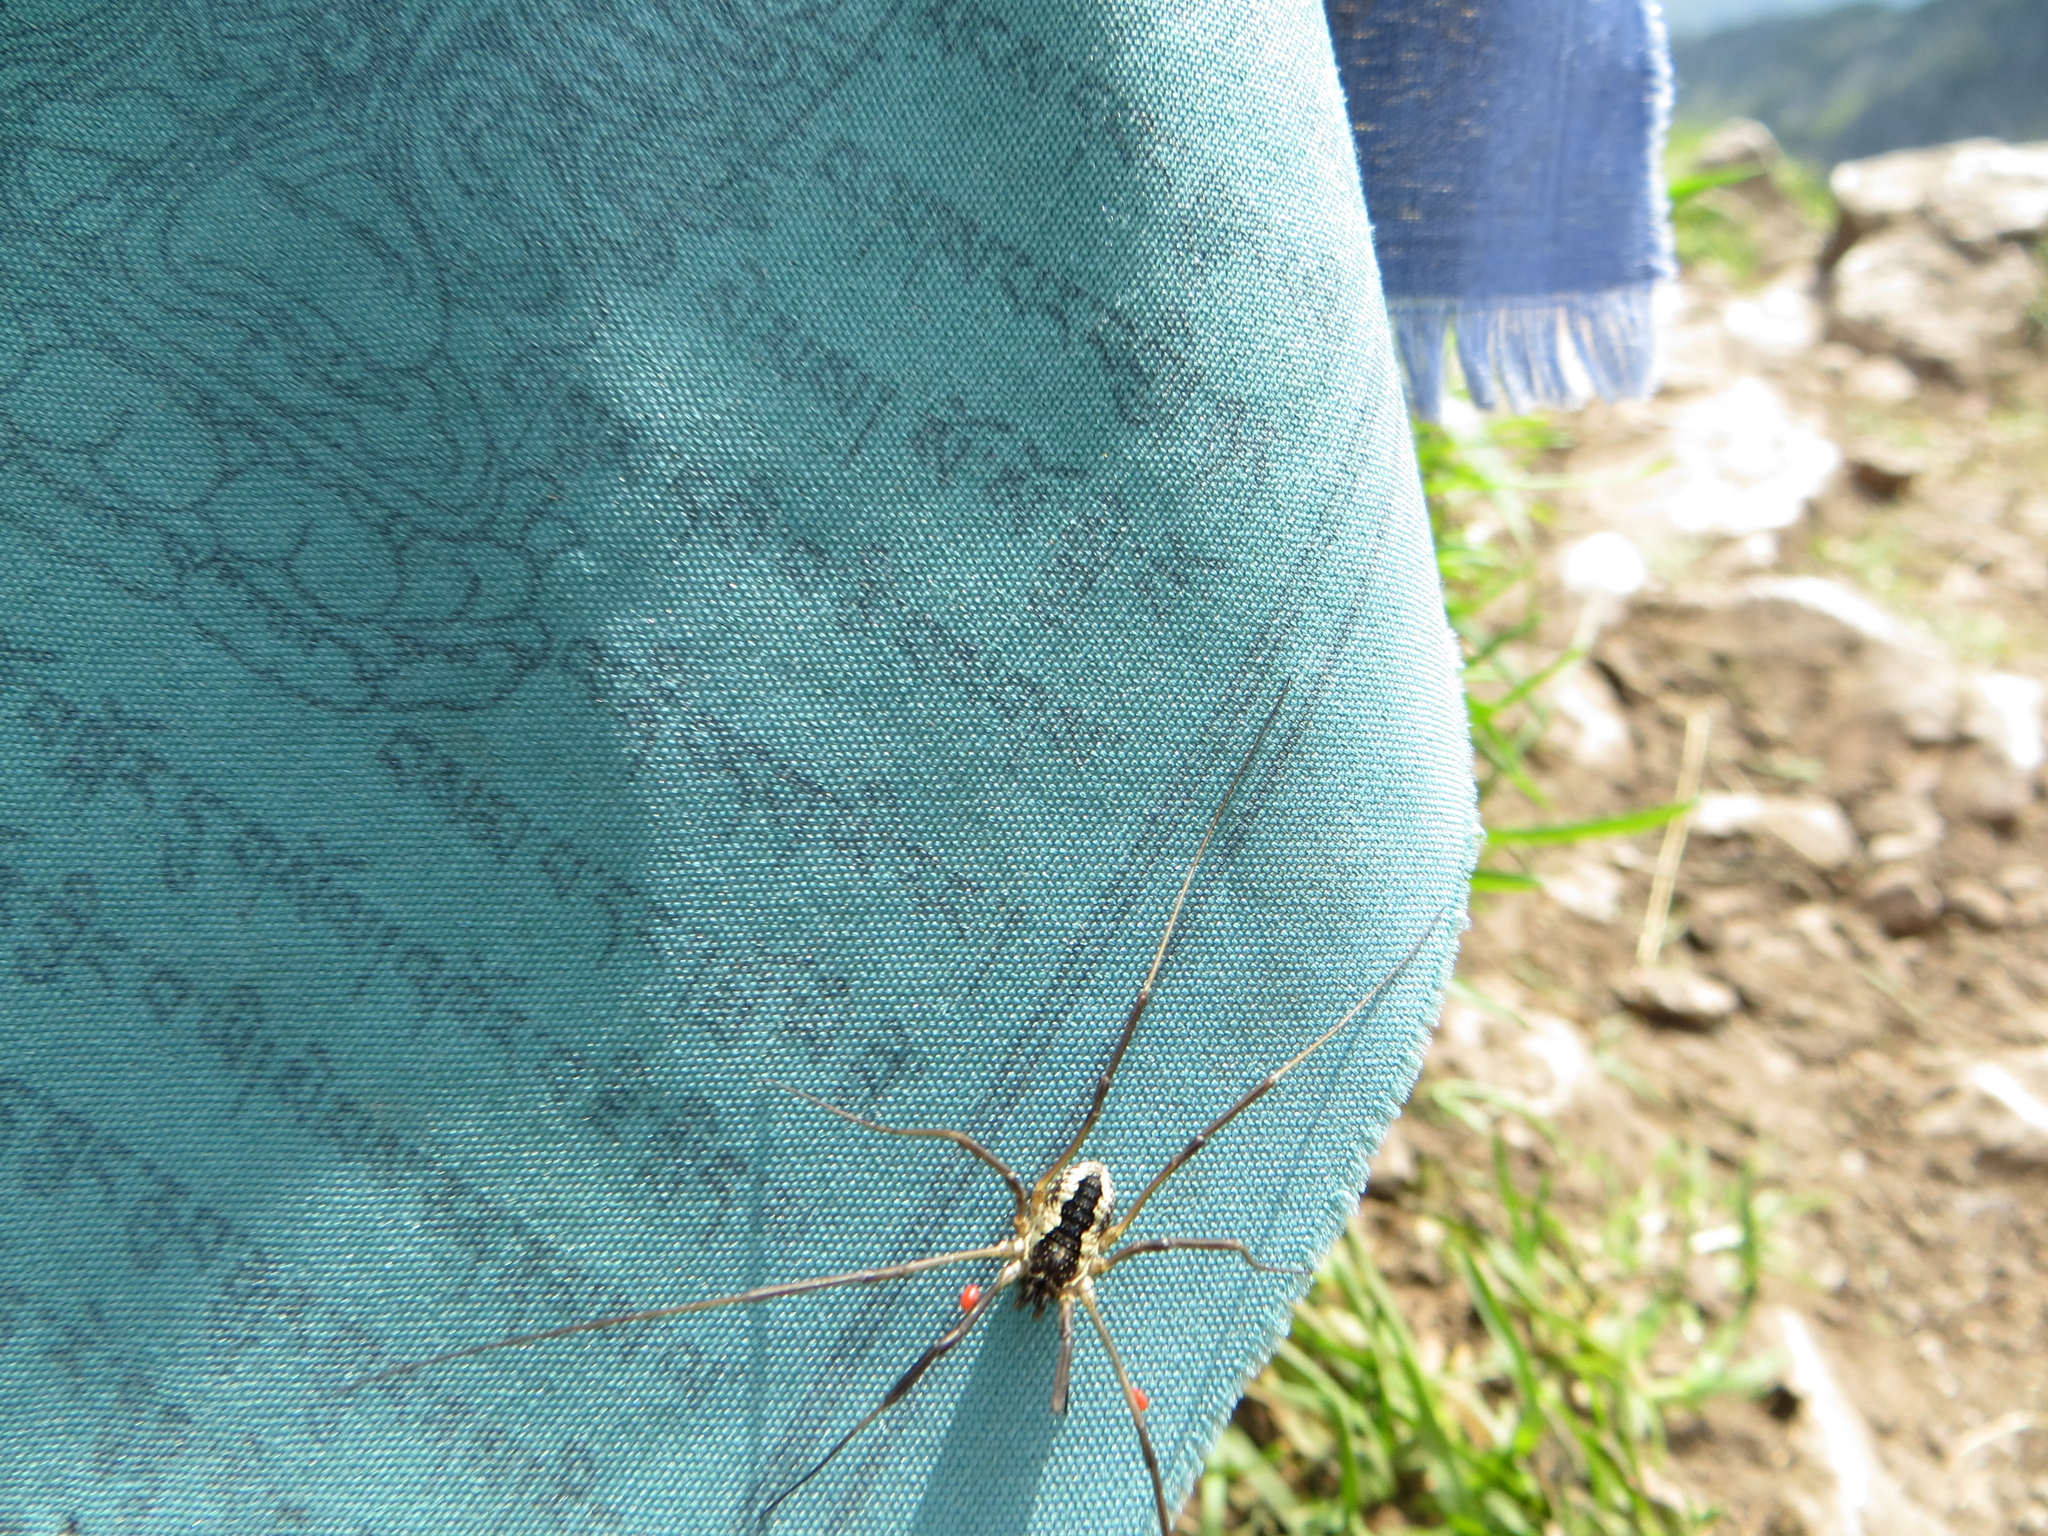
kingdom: Animalia
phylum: Arthropoda
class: Arachnida
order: Opiliones
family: Phalangiidae
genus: Mitopus
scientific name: Mitopus morio
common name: Saddleback harvestman
